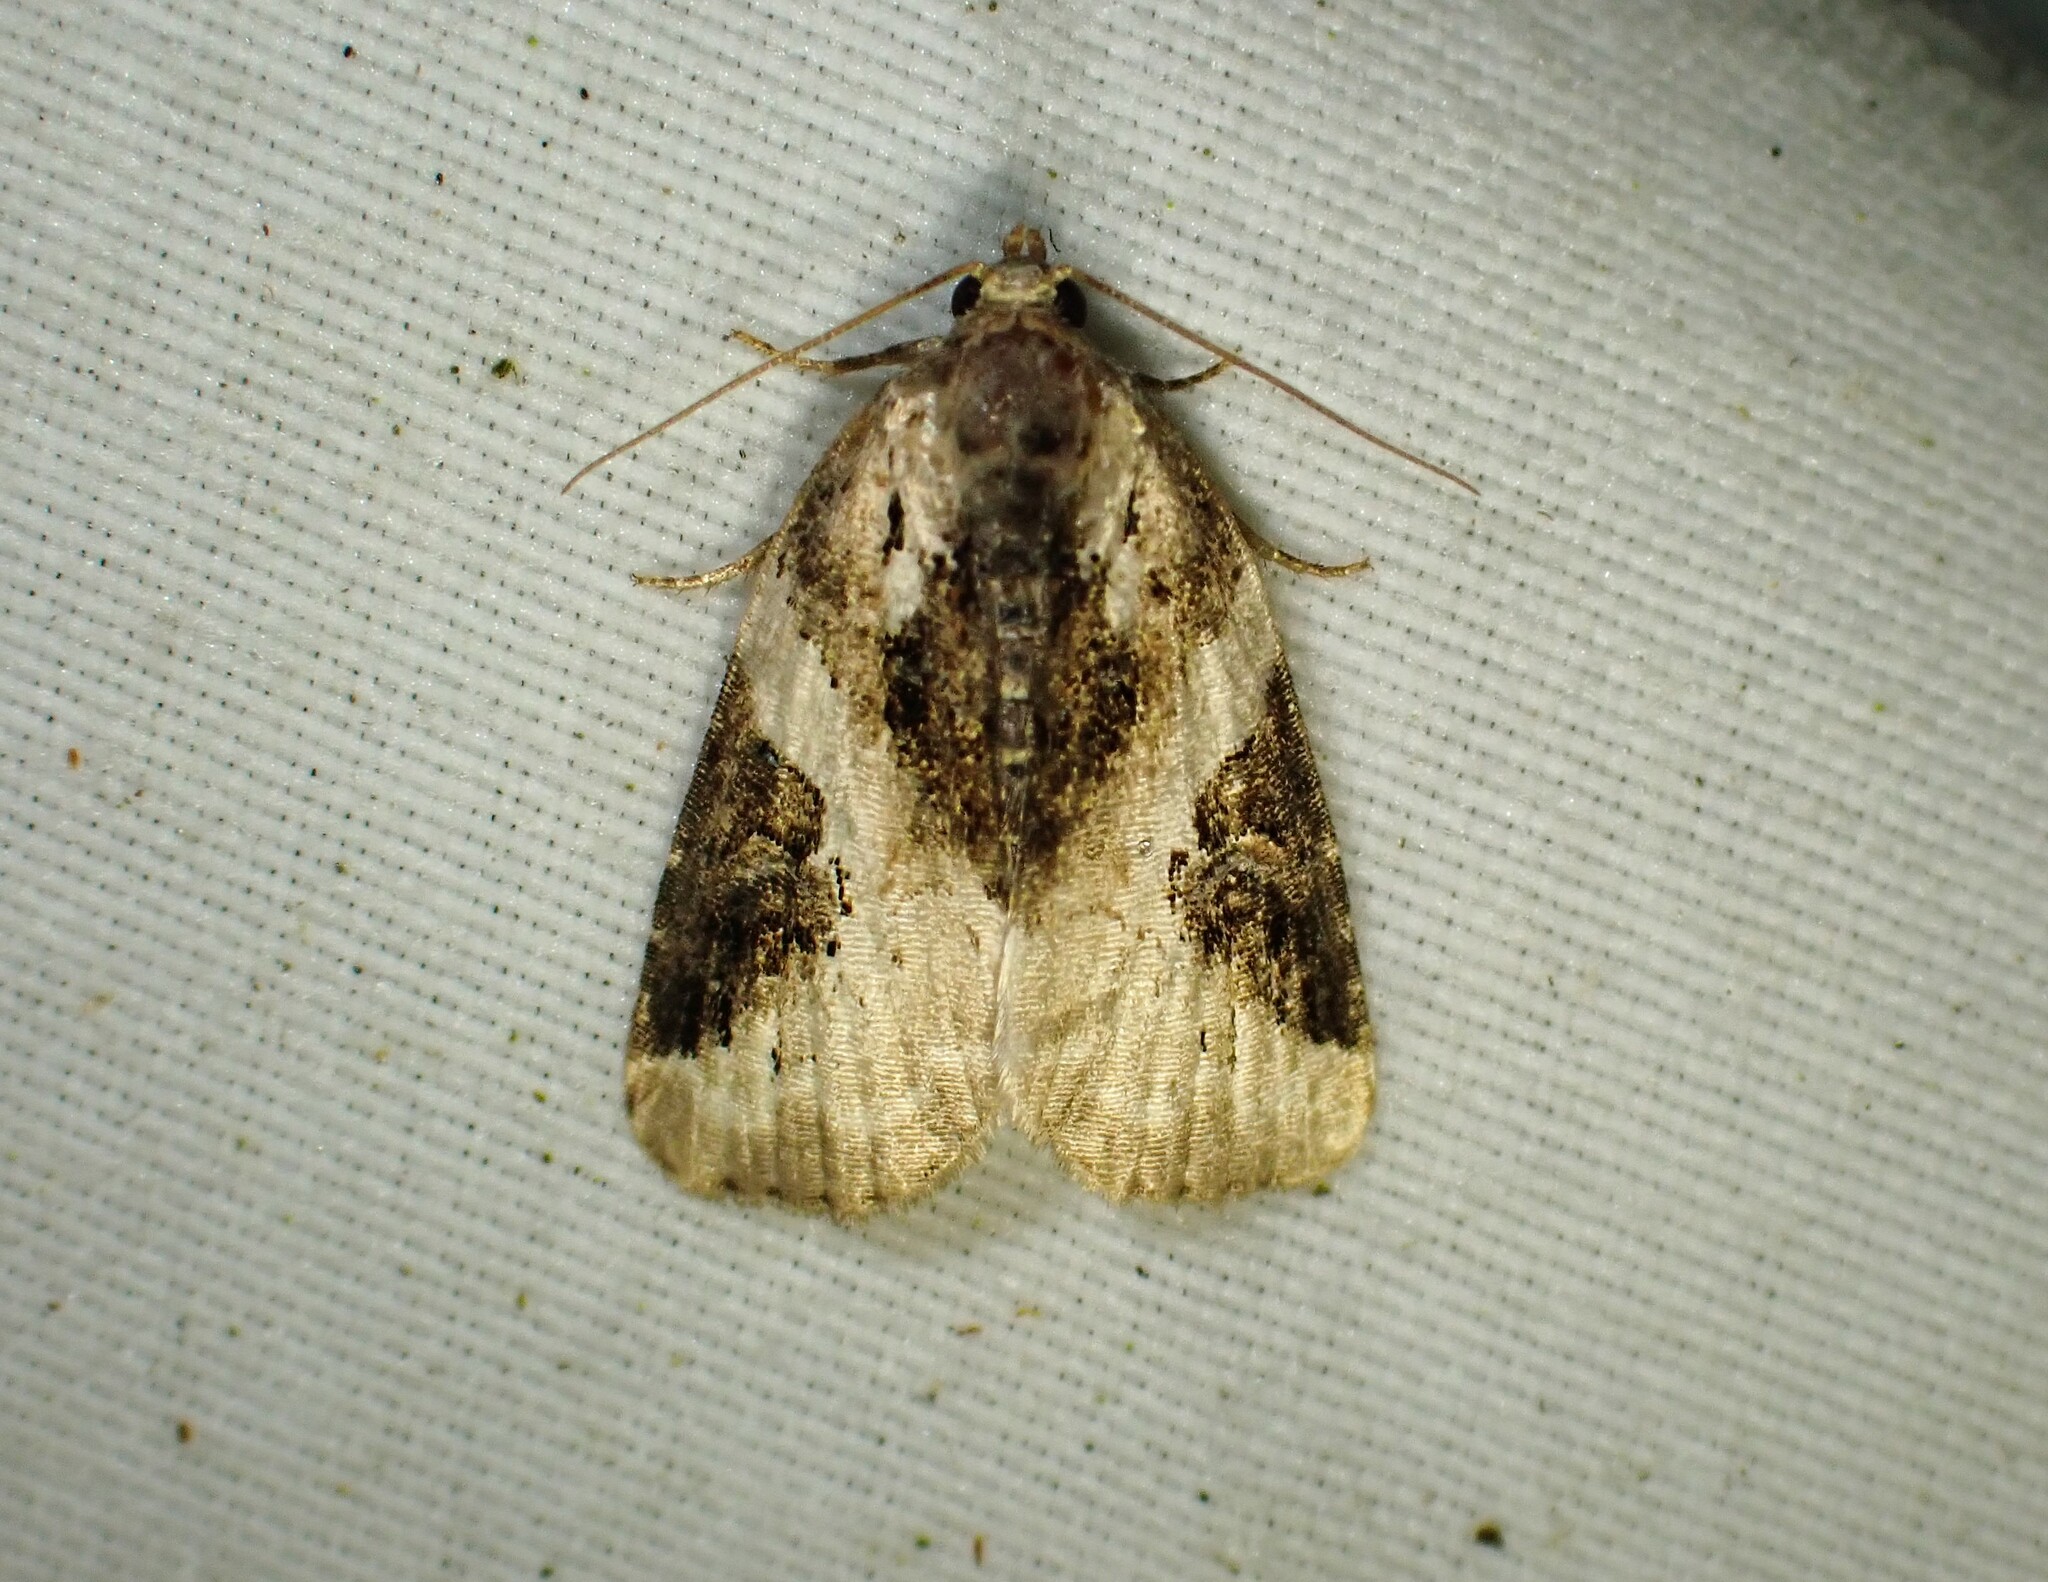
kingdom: Animalia
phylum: Arthropoda
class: Insecta
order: Lepidoptera
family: Noctuidae
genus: Pseudeustrotia
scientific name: Pseudeustrotia carneola
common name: Pink-barred lithacodia moth
